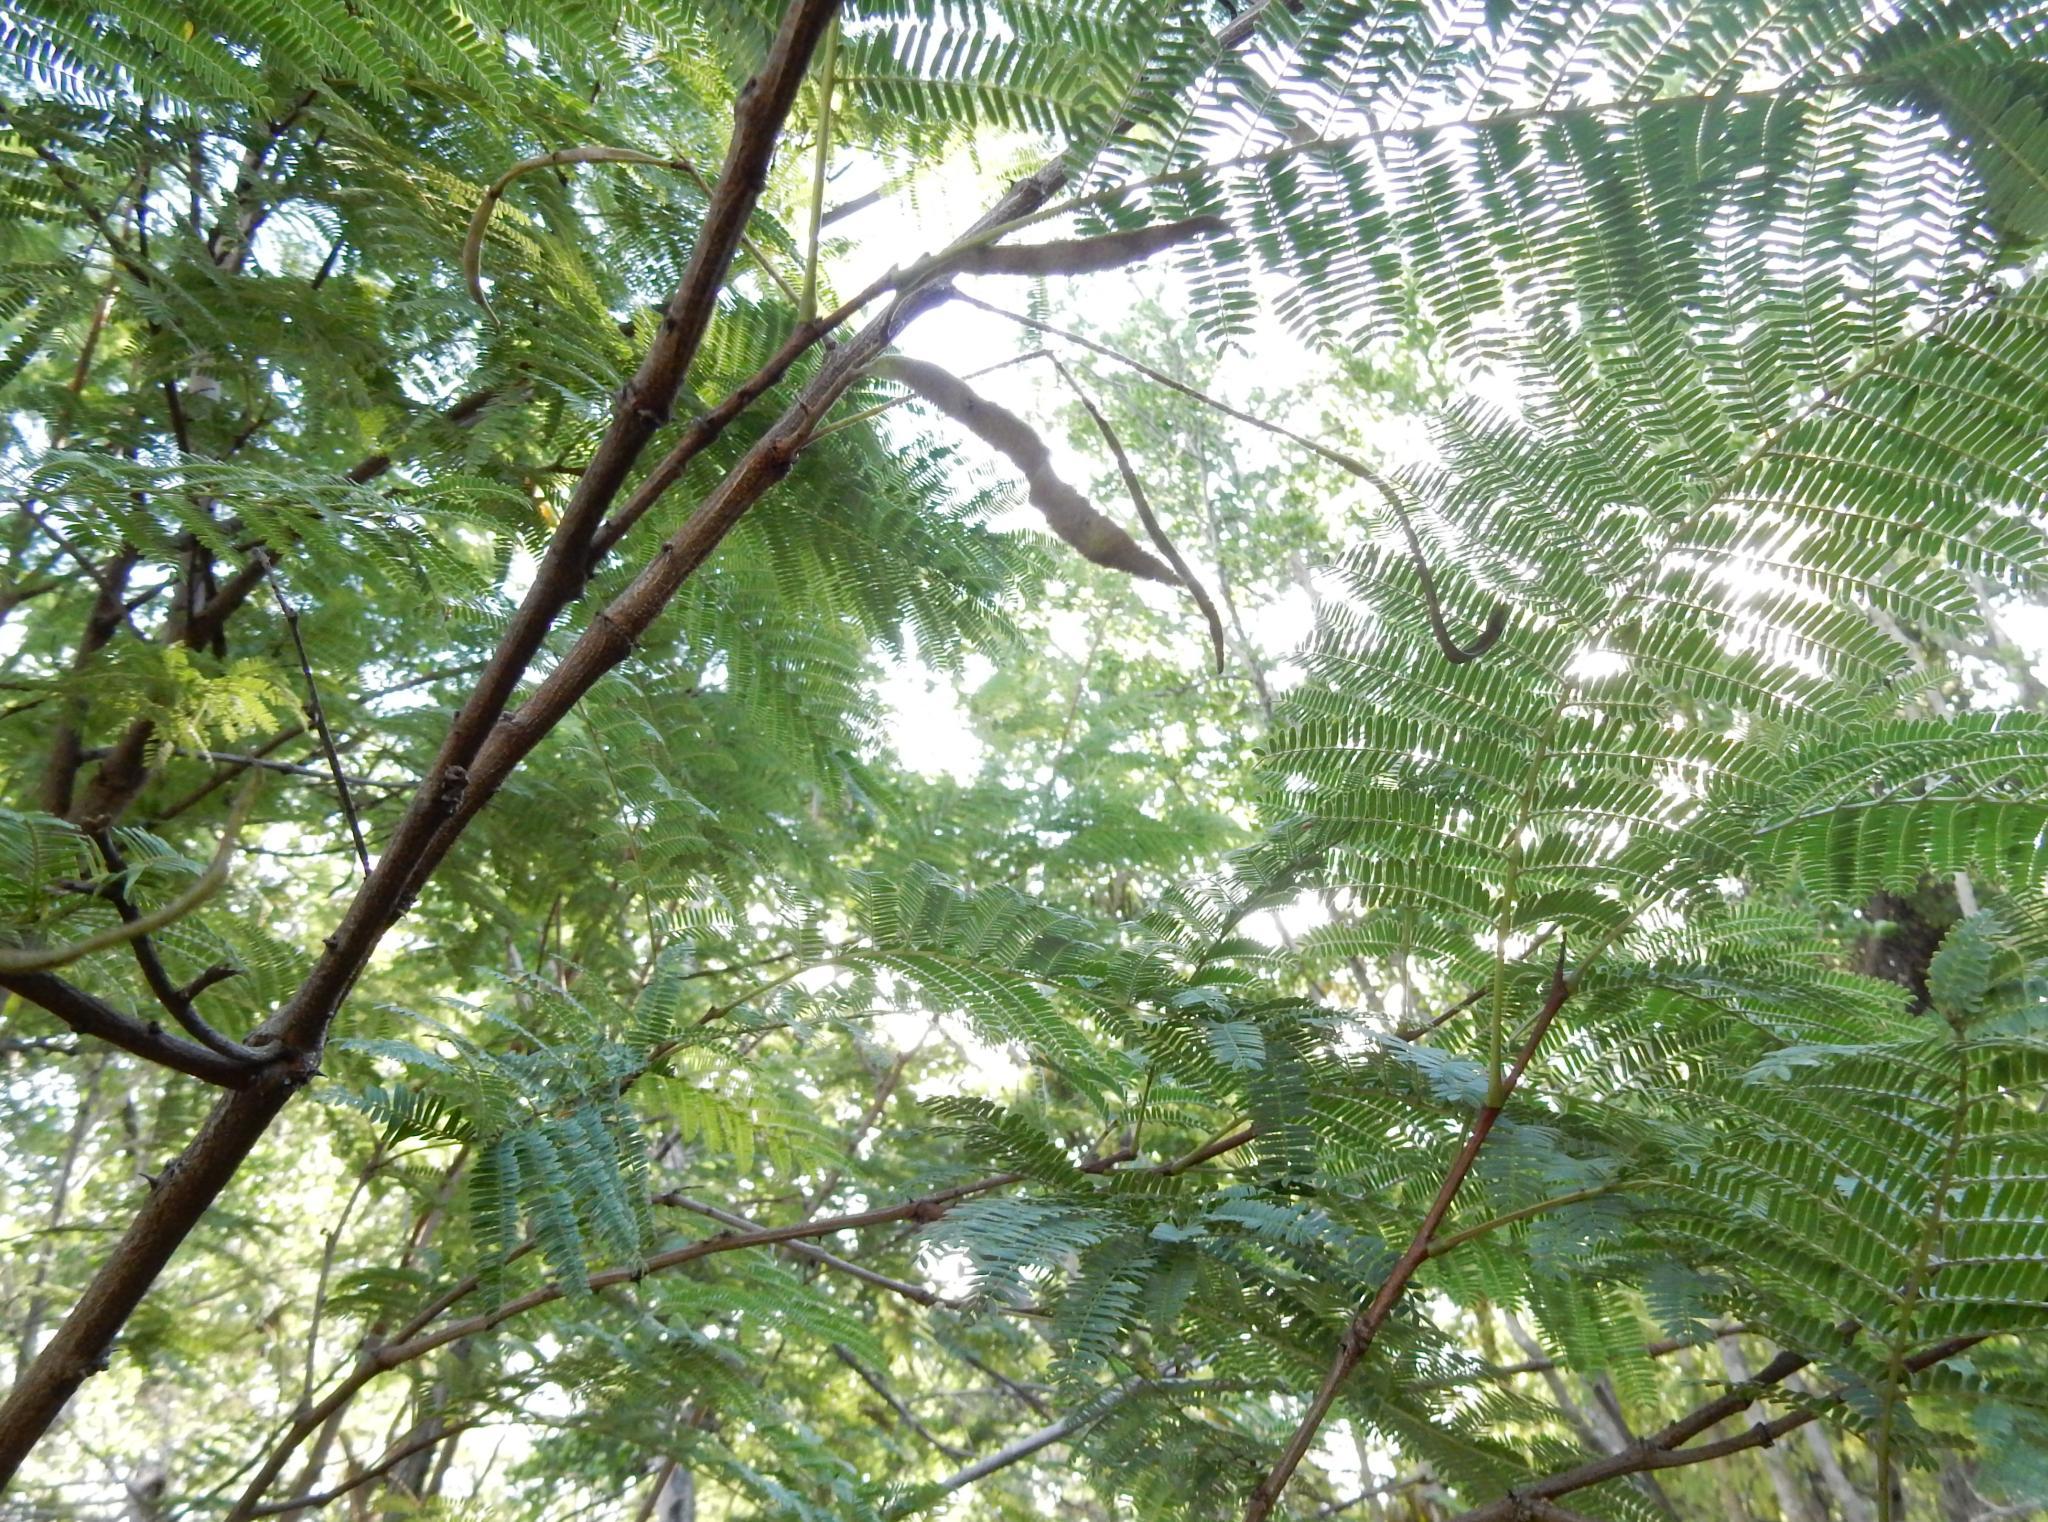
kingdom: Plantae
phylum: Tracheophyta
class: Magnoliopsida
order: Fabales
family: Fabaceae
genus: Senegalia
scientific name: Senegalia caffra
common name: Cat thorn
